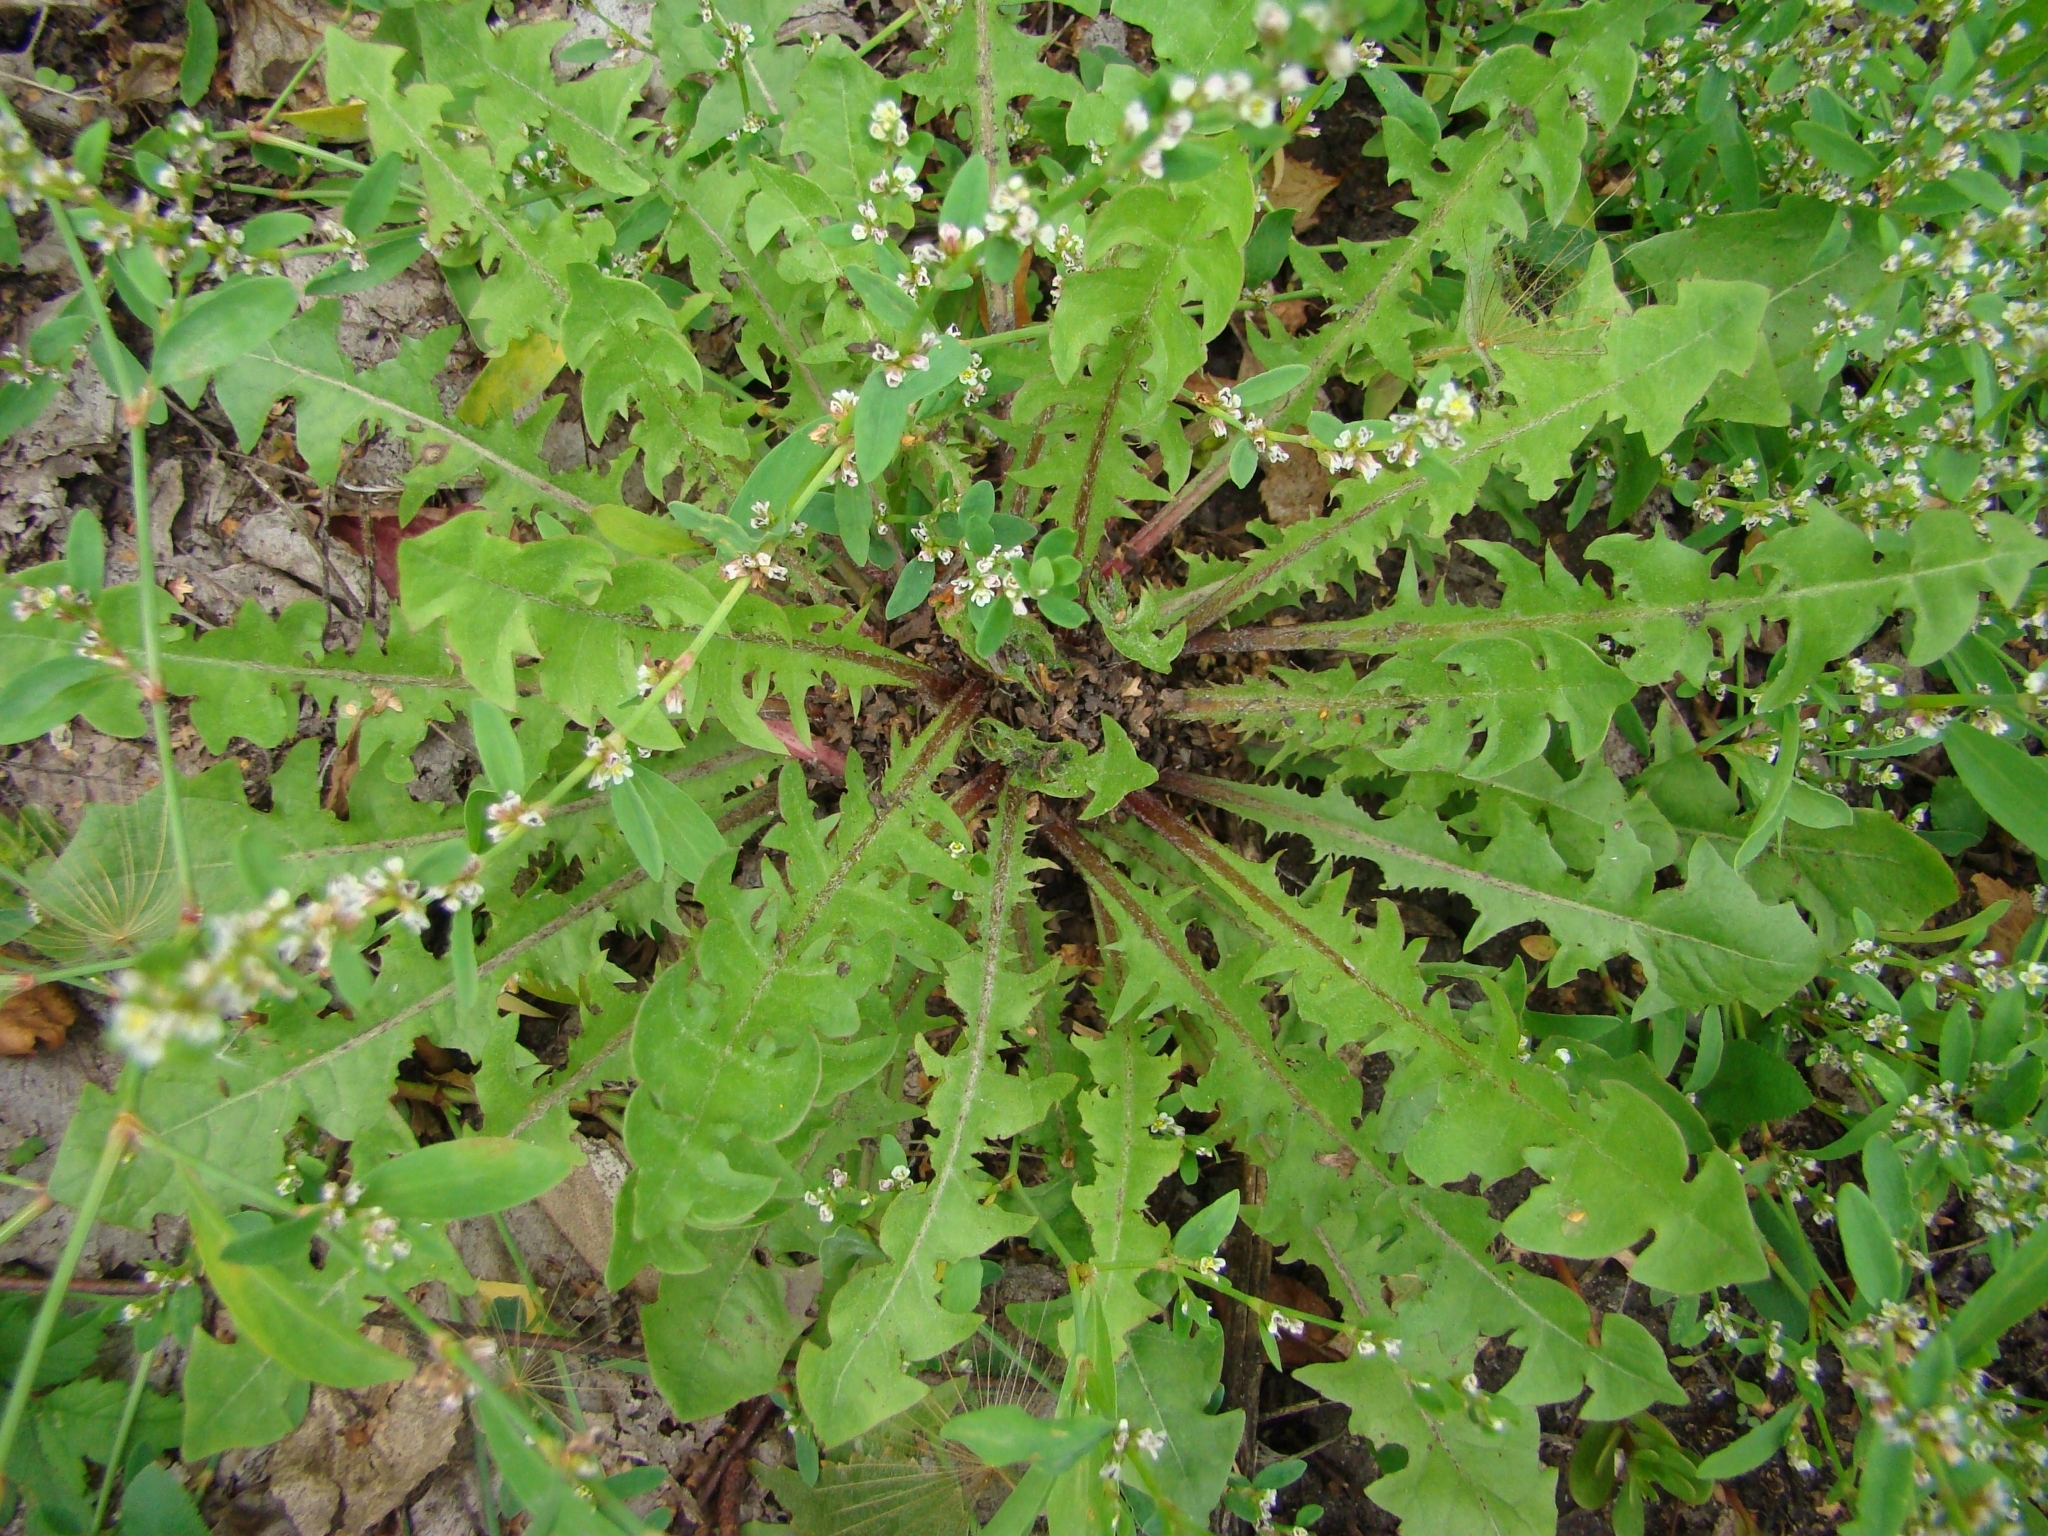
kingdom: Plantae
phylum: Tracheophyta
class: Magnoliopsida
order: Asterales
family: Asteraceae
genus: Taraxacum
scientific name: Taraxacum officinale
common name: Common dandelion
